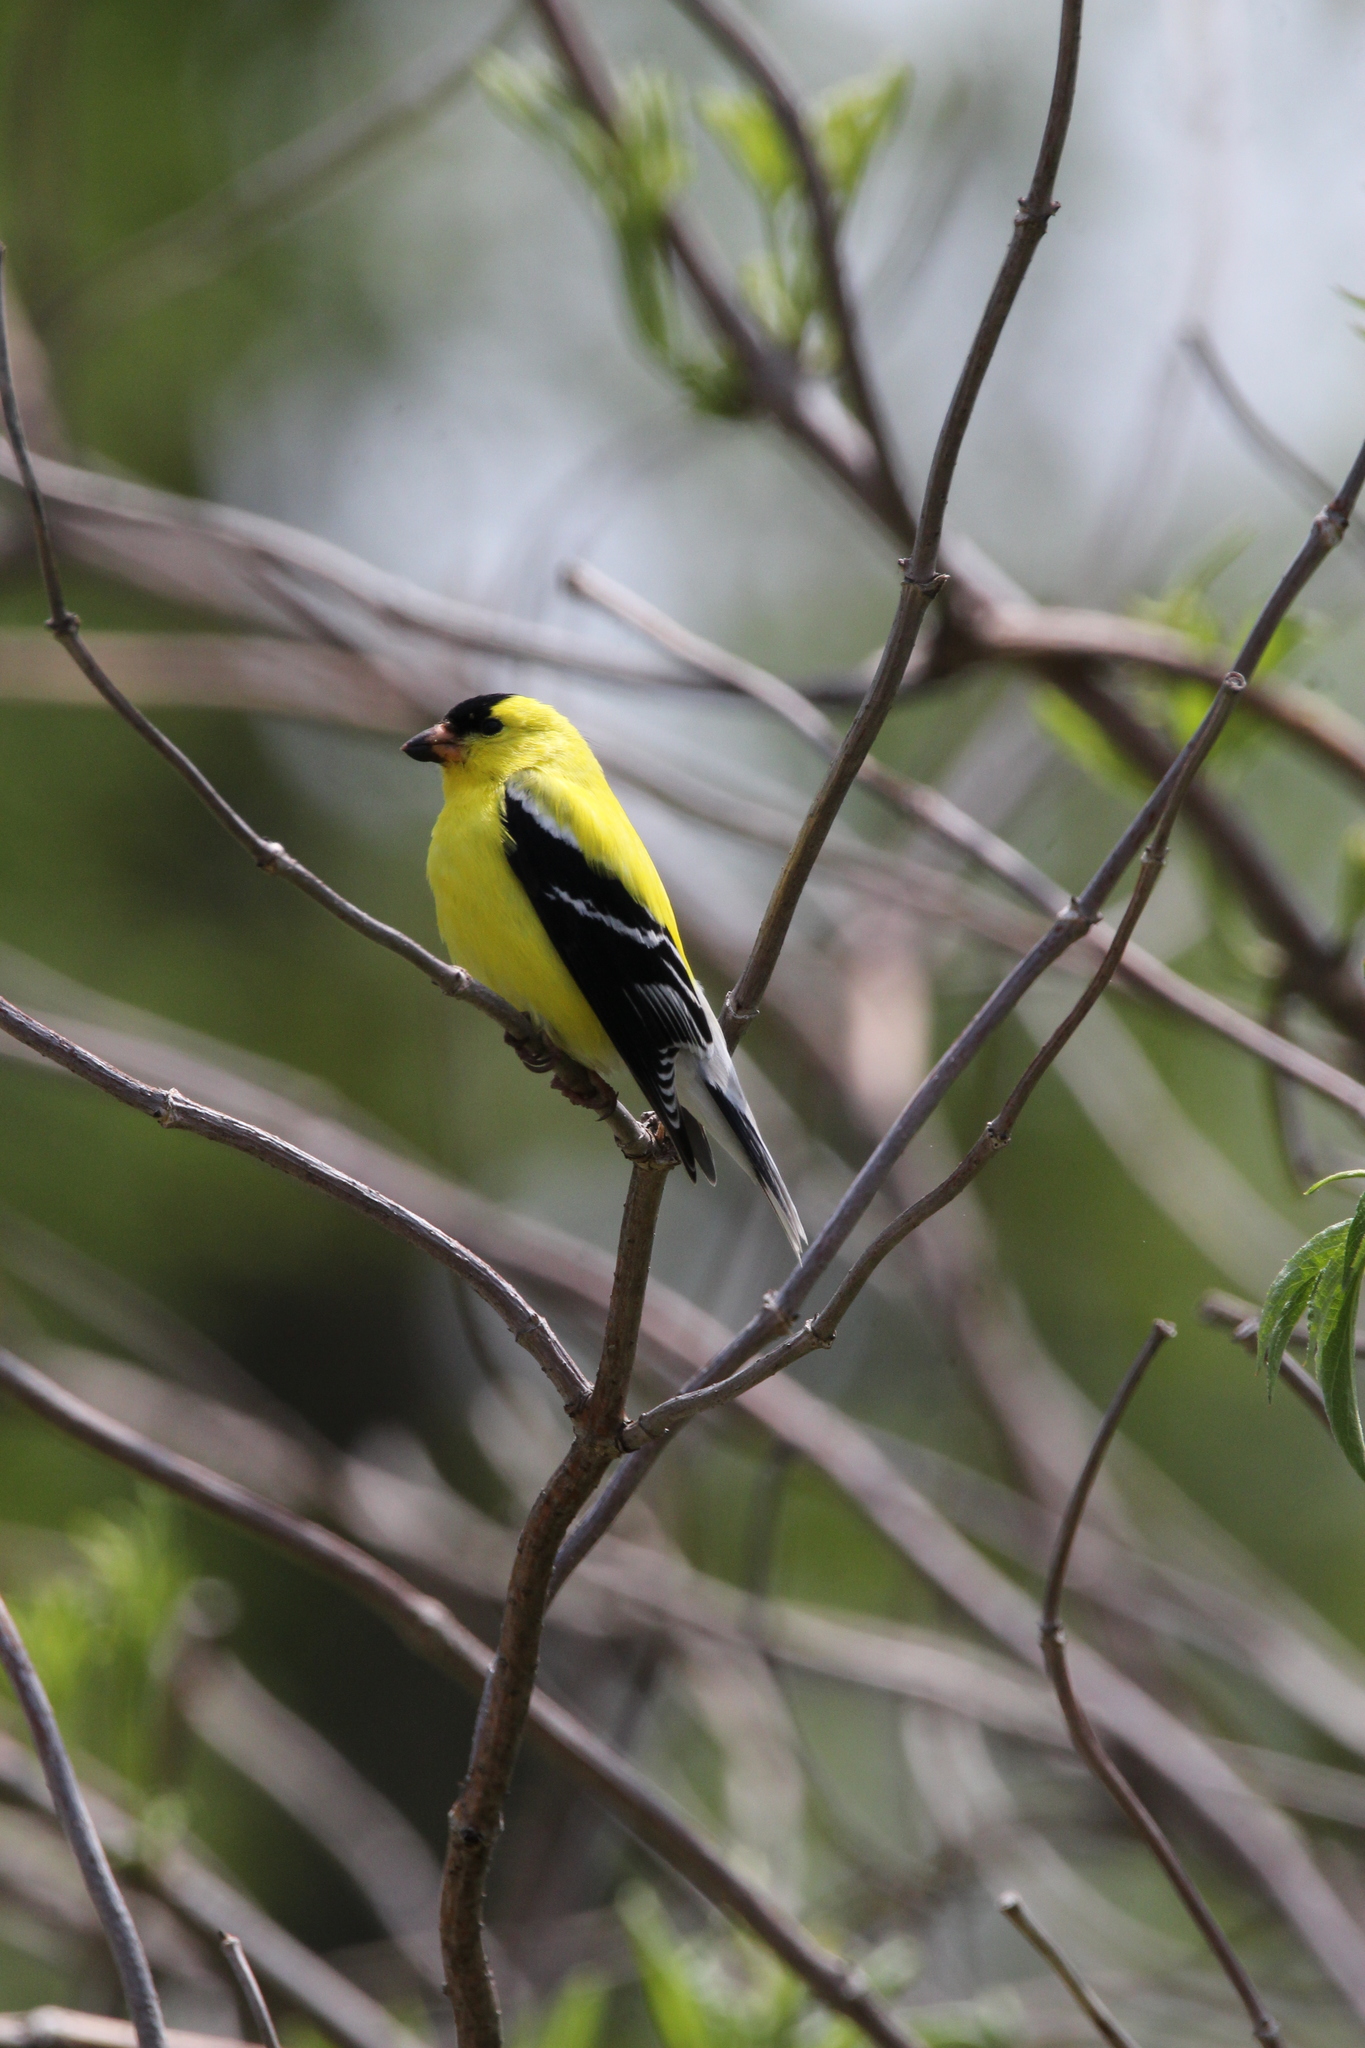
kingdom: Animalia
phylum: Chordata
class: Aves
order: Passeriformes
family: Fringillidae
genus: Spinus
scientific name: Spinus tristis
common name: American goldfinch
